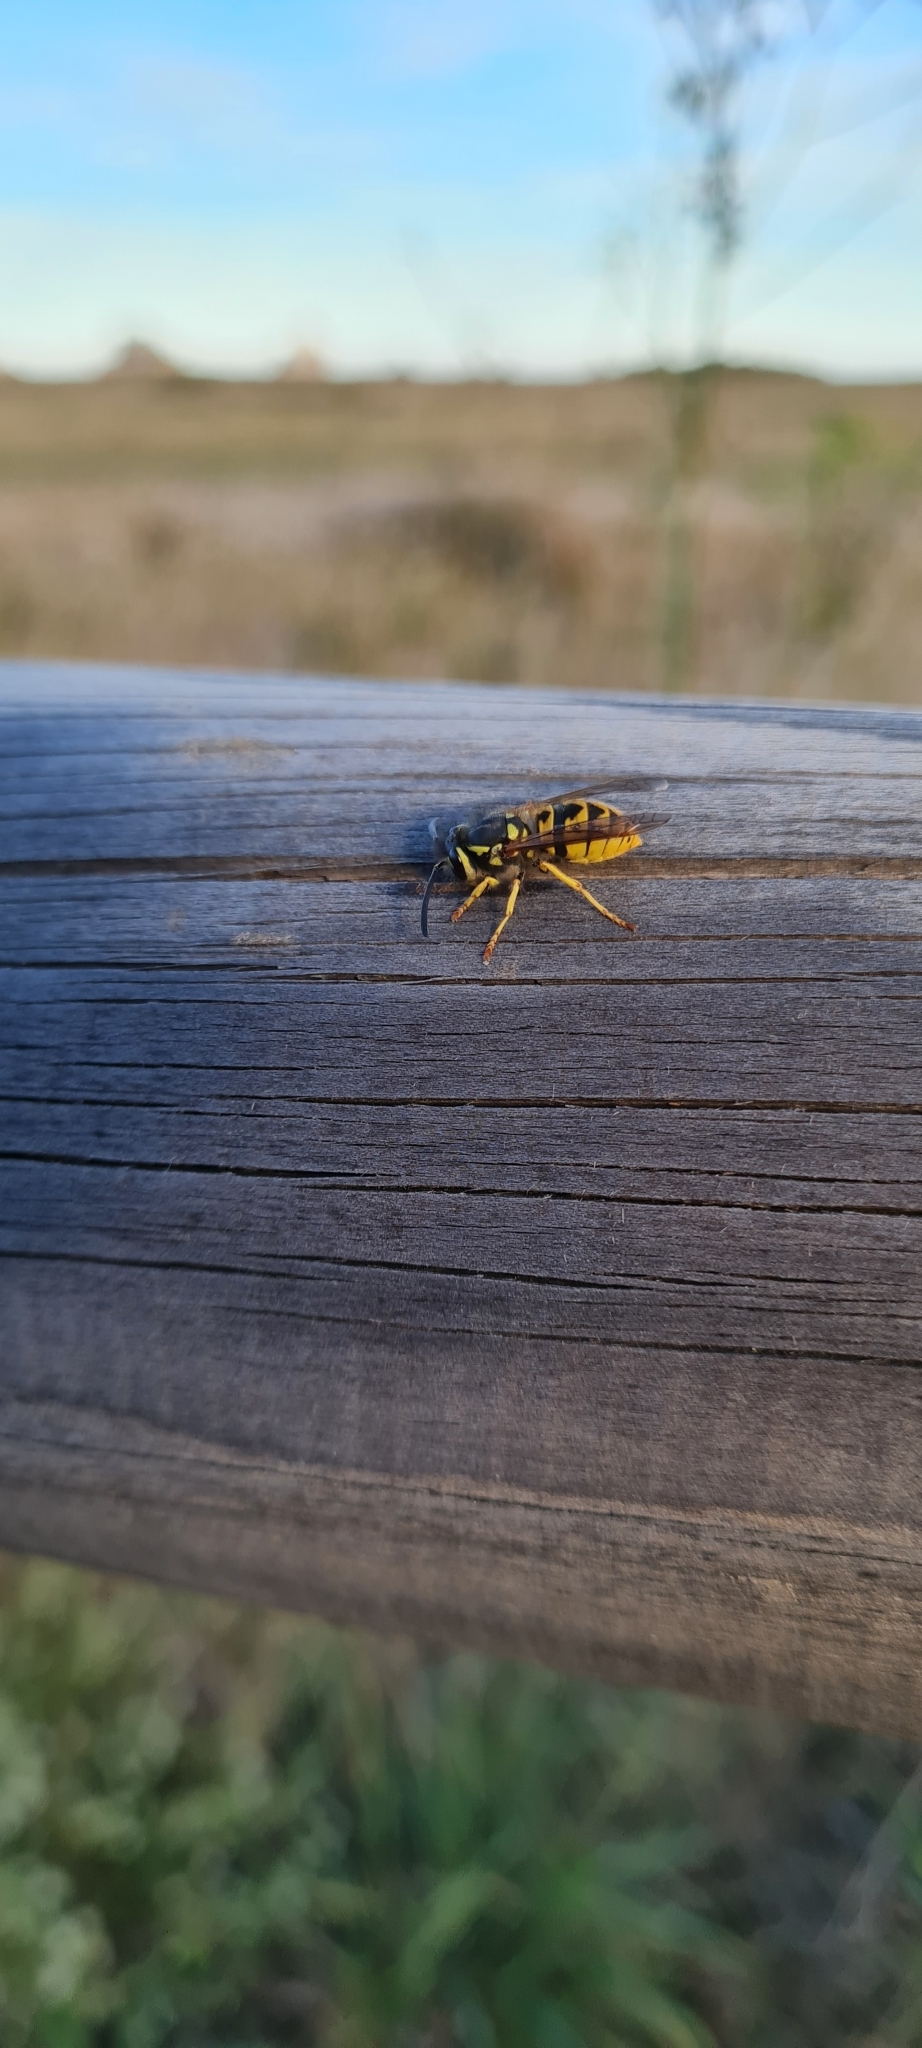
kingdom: Animalia
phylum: Arthropoda
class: Insecta
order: Hymenoptera
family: Vespidae
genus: Vespula
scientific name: Vespula germanica
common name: German wasp
